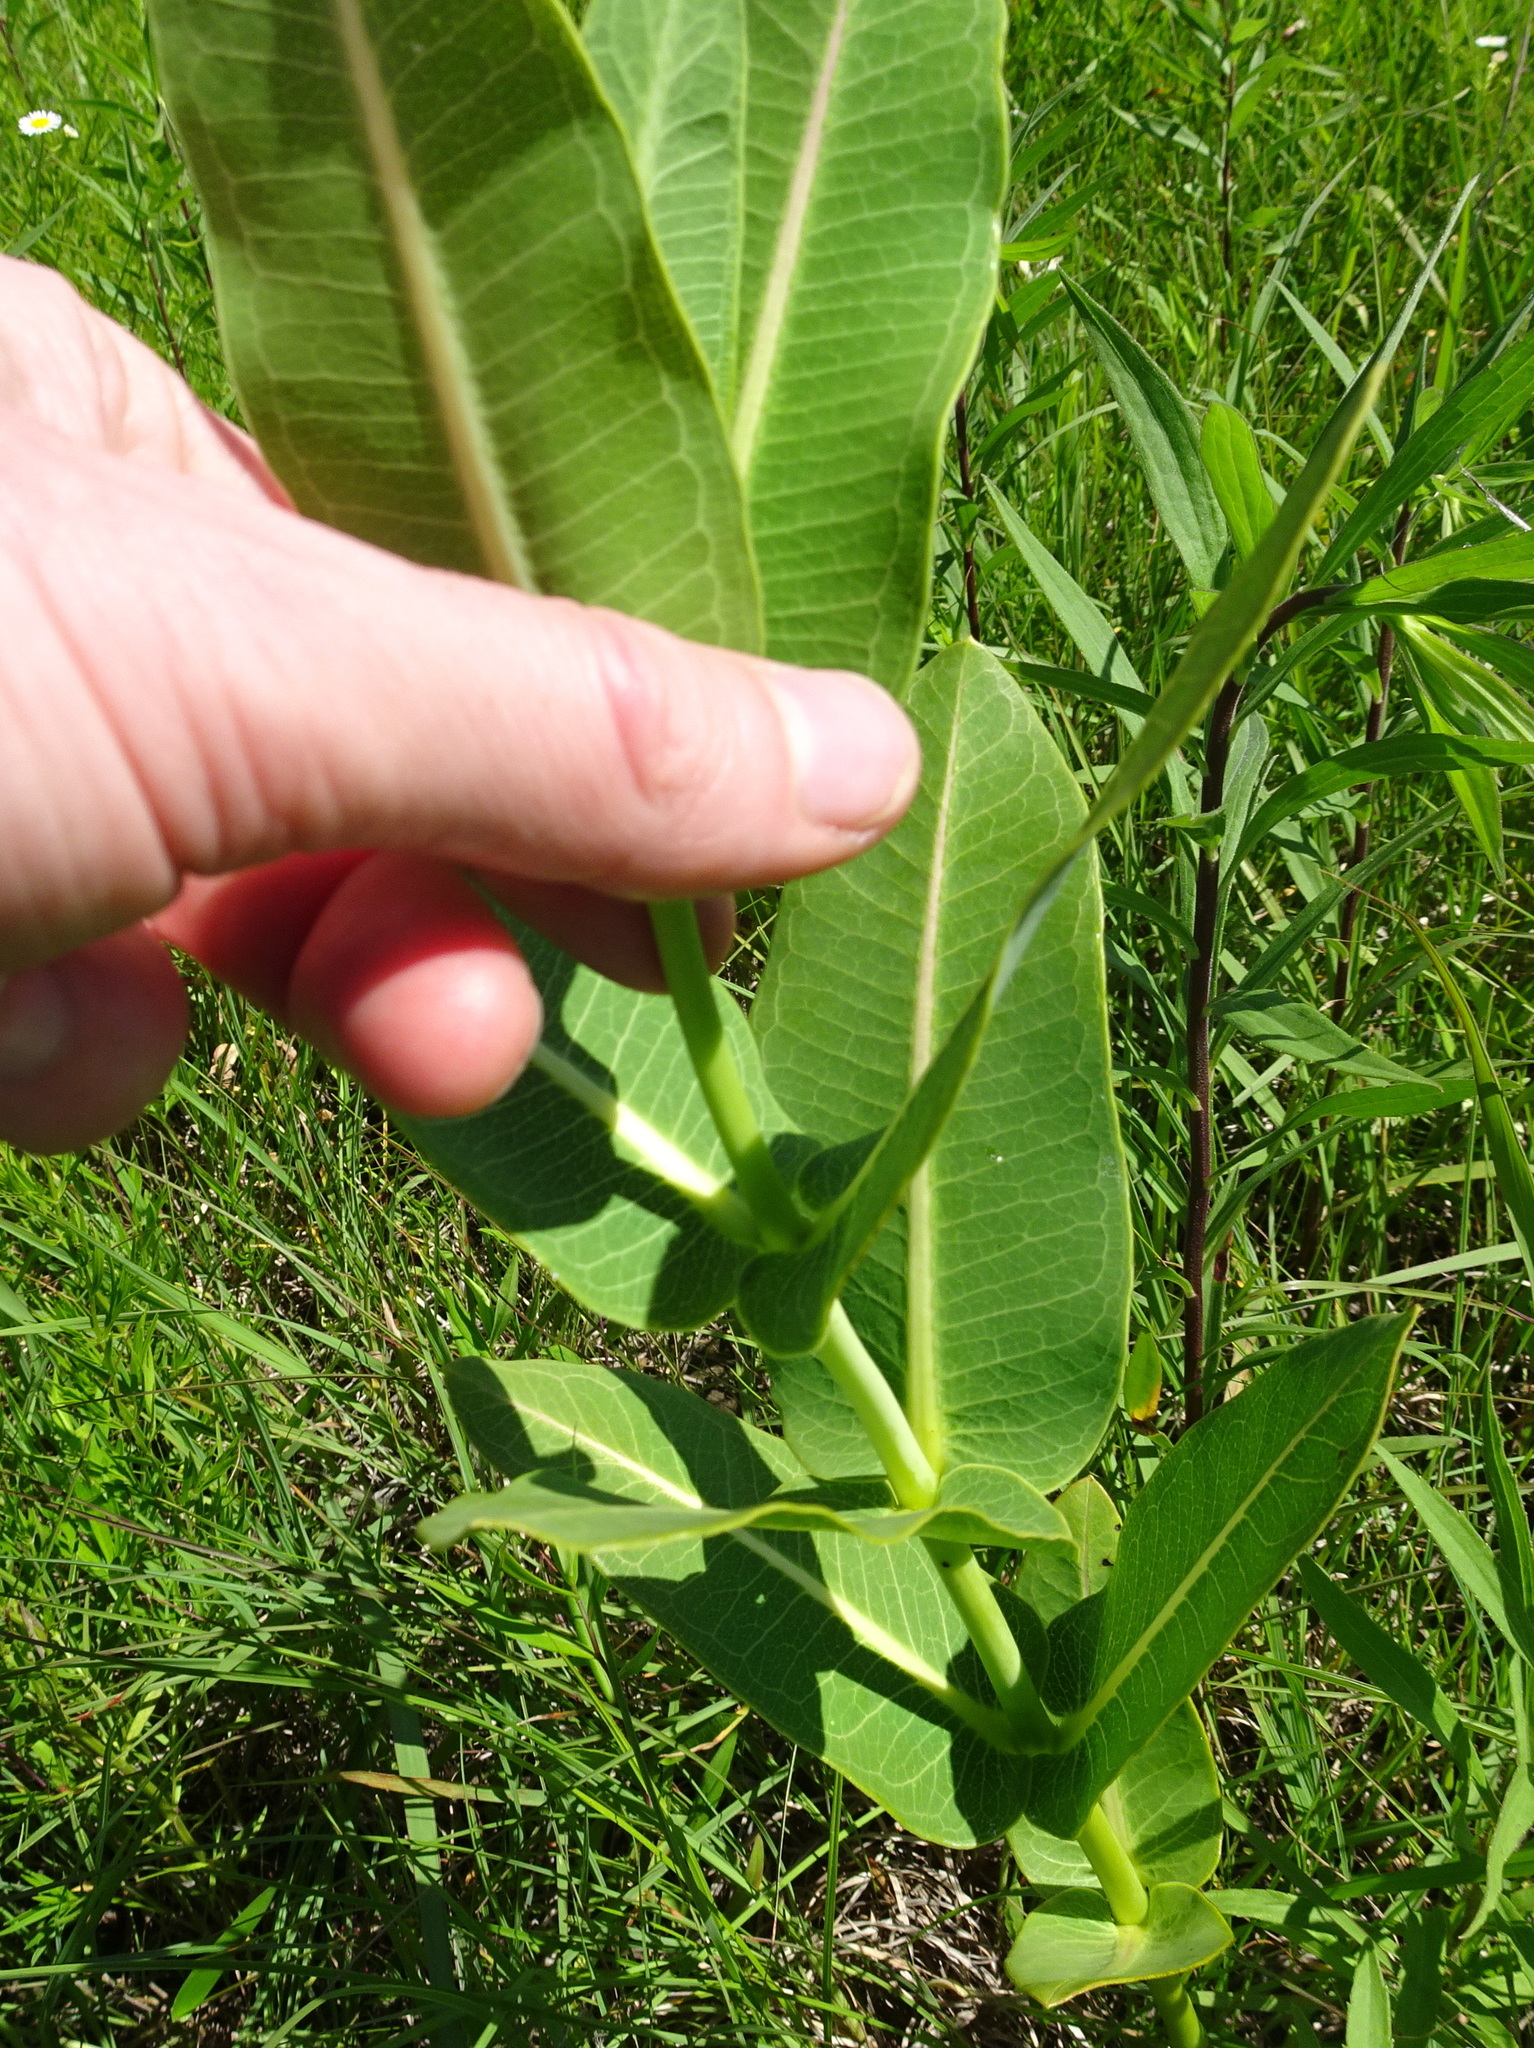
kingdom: Plantae
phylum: Tracheophyta
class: Magnoliopsida
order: Gentianales
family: Apocynaceae
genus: Asclepias
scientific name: Asclepias sullivantii
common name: Prairie milkweed
